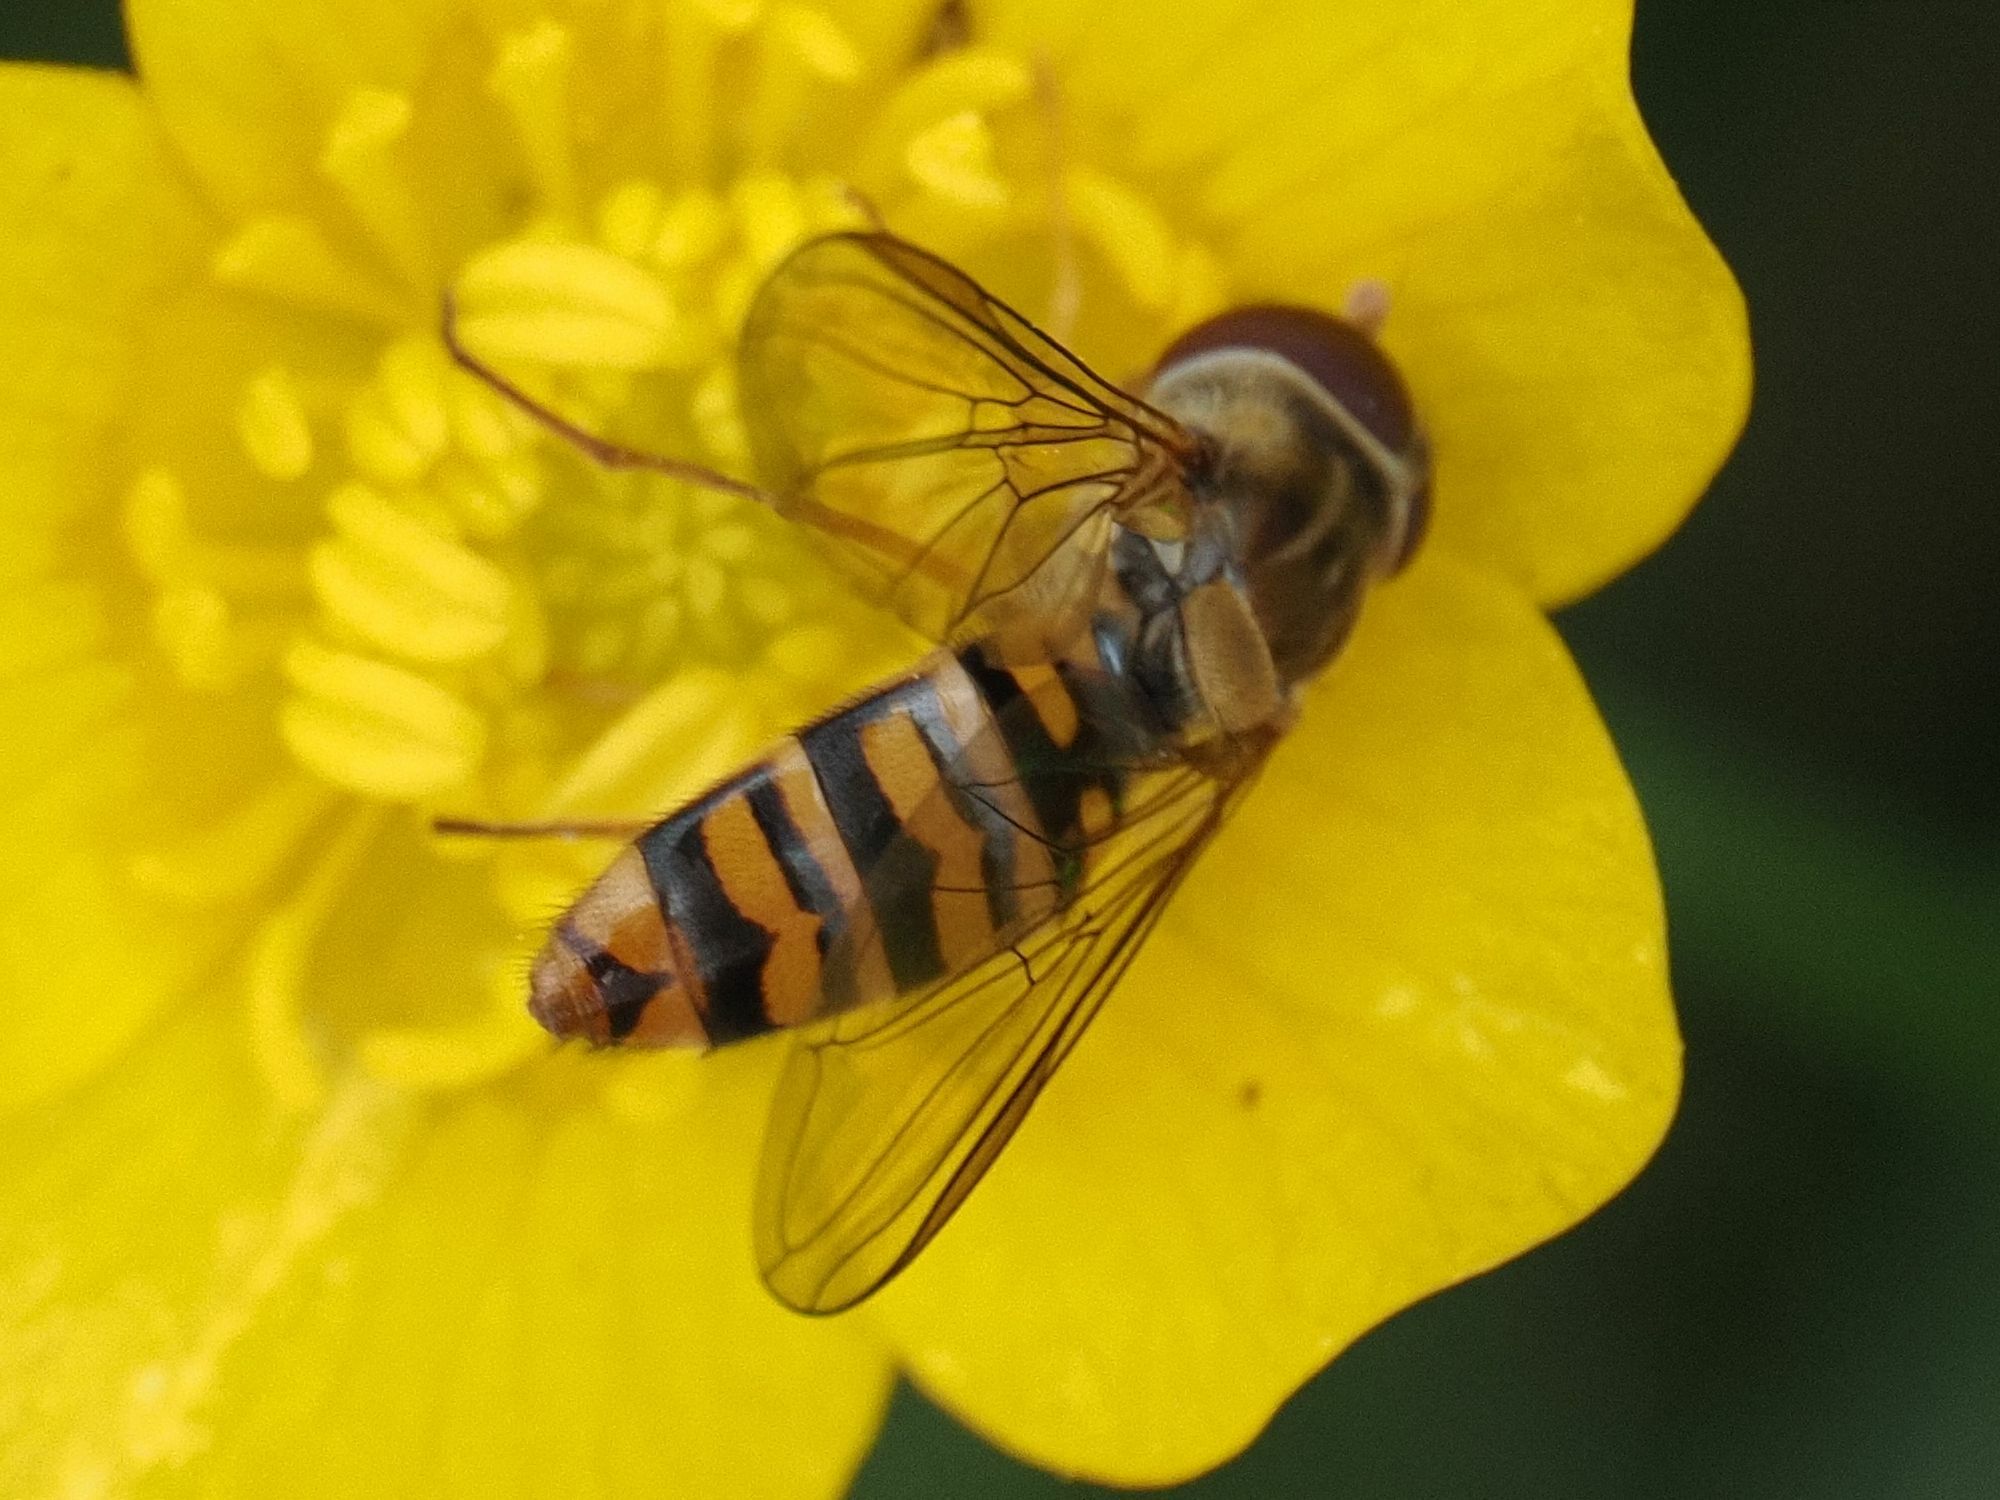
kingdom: Animalia
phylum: Arthropoda
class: Insecta
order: Diptera
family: Syrphidae
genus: Episyrphus
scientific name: Episyrphus balteatus
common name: Marmalade hoverfly
